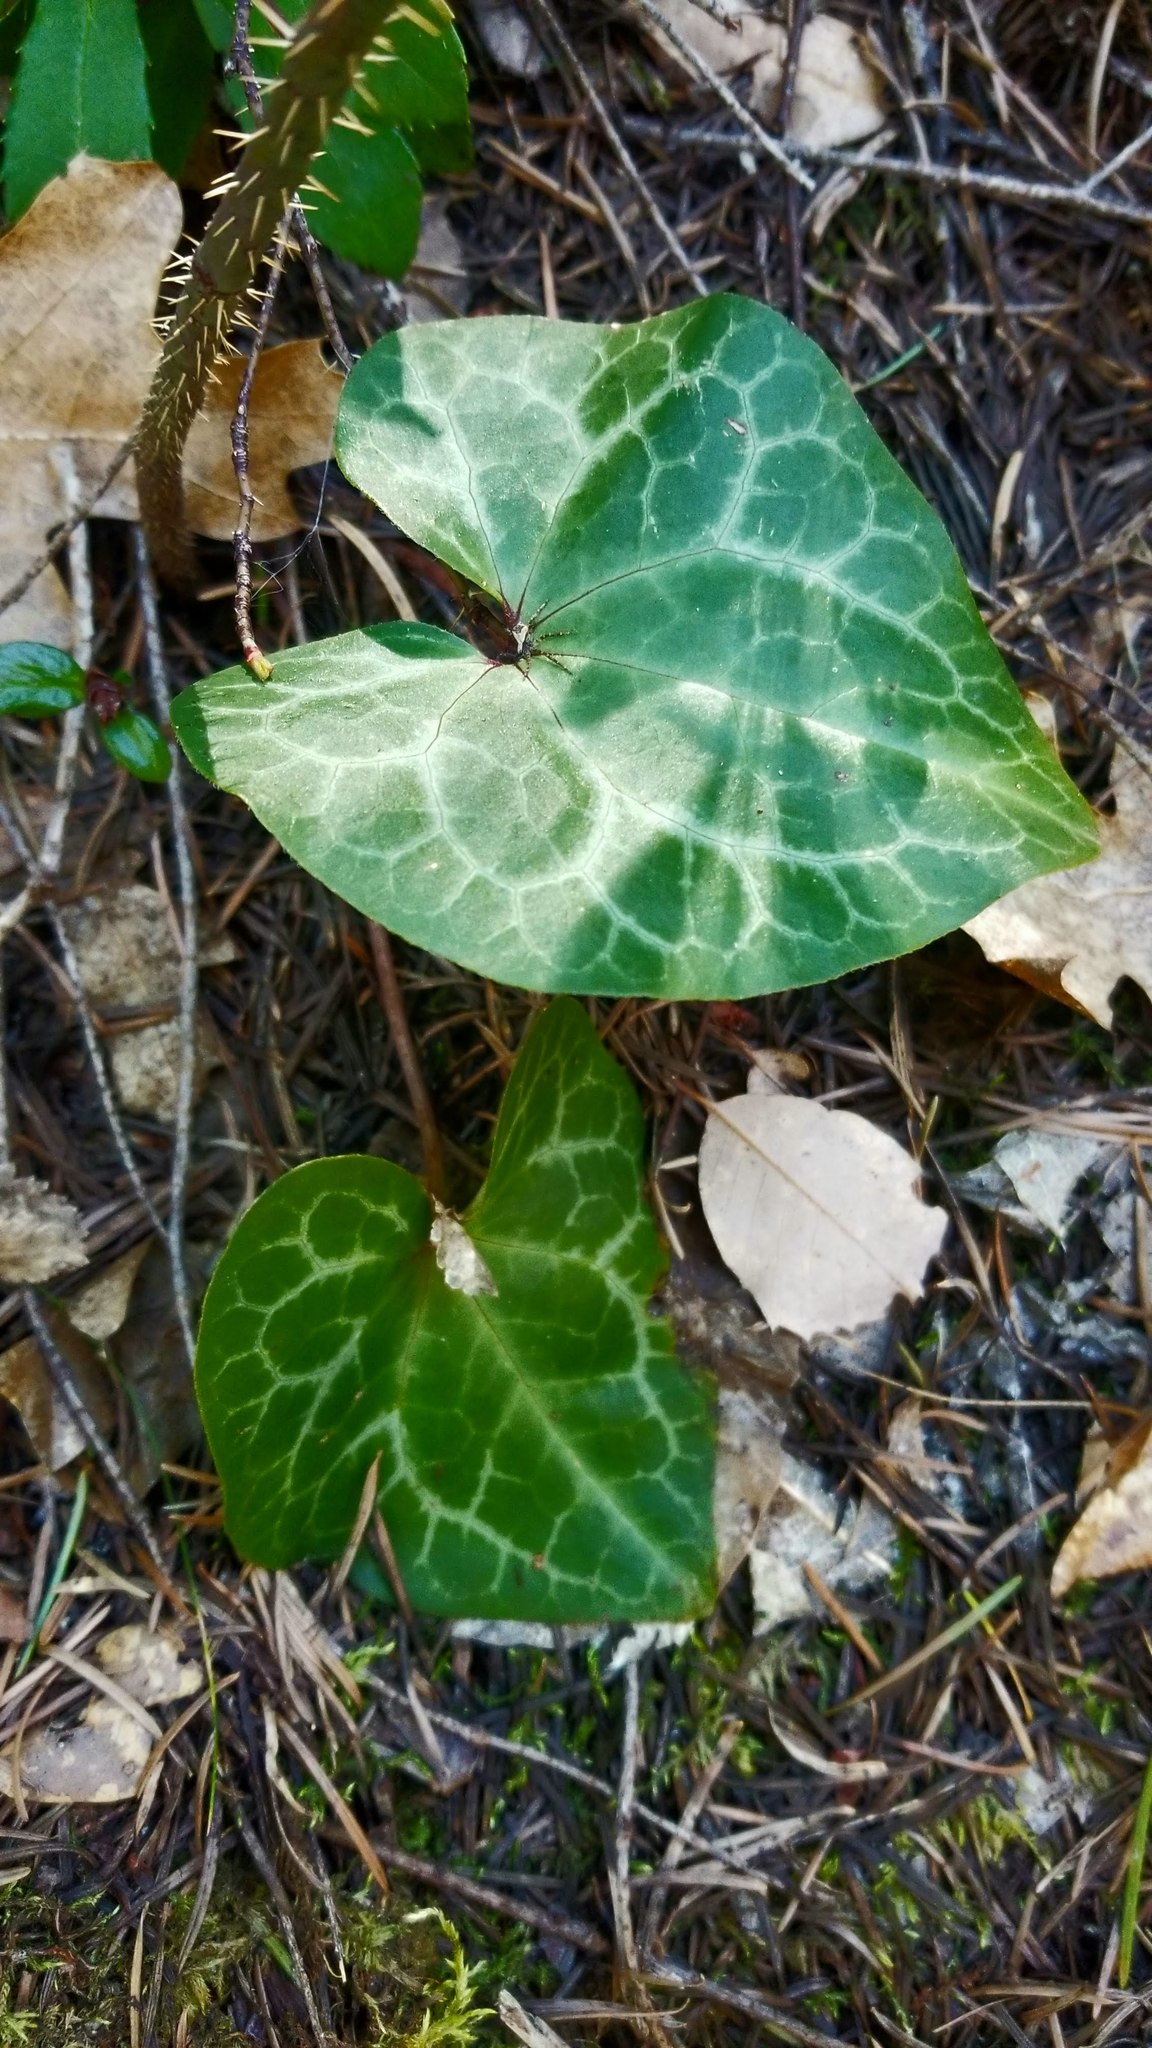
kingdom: Plantae
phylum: Tracheophyta
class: Magnoliopsida
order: Piperales
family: Aristolochiaceae
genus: Asarum
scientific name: Asarum hartwegii
